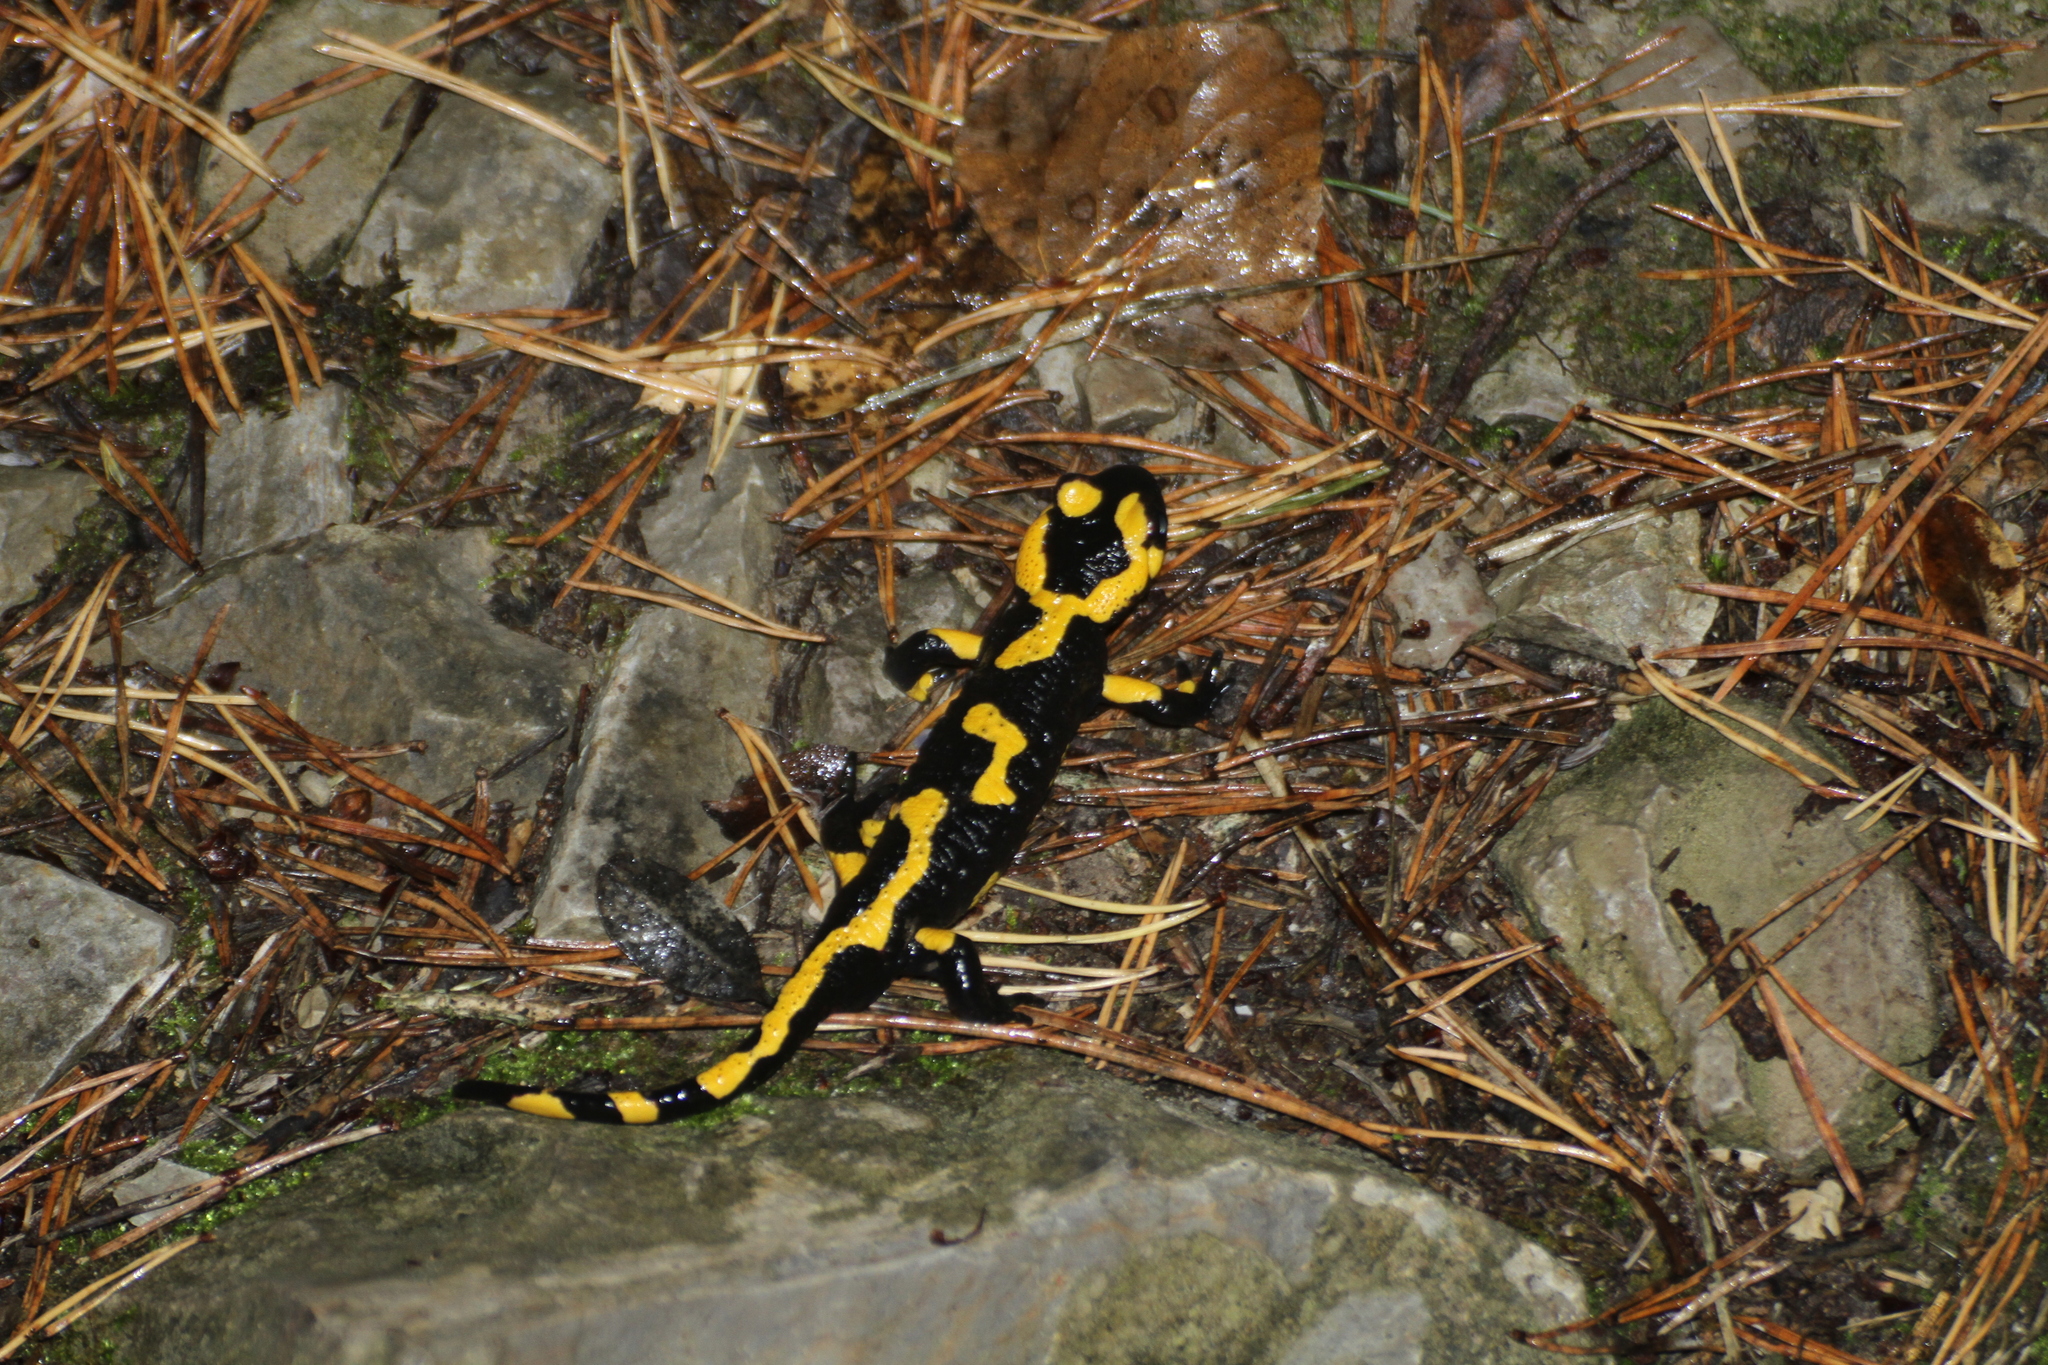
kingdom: Animalia
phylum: Chordata
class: Amphibia
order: Caudata
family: Salamandridae
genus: Salamandra
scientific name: Salamandra salamandra
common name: Fire salamander
